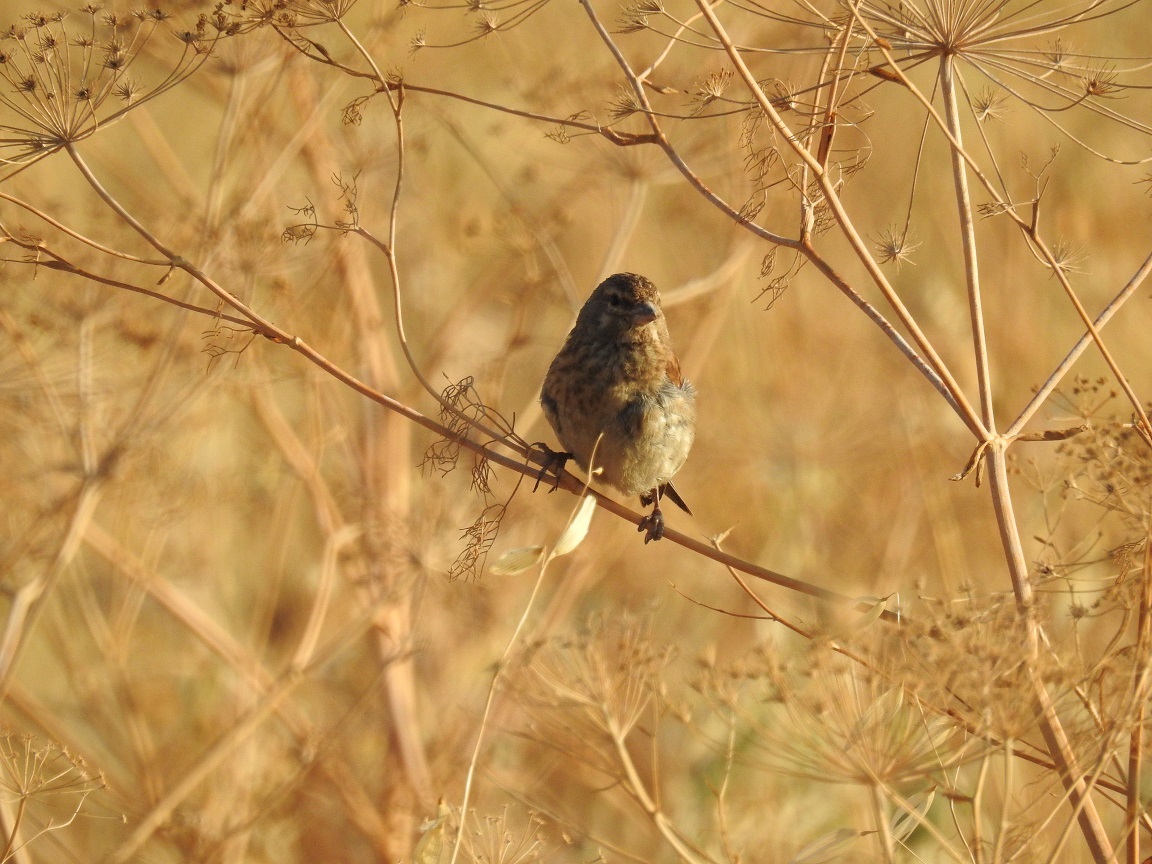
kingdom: Animalia
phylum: Chordata
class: Aves
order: Passeriformes
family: Fringillidae
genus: Linaria
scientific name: Linaria cannabina
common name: Common linnet
